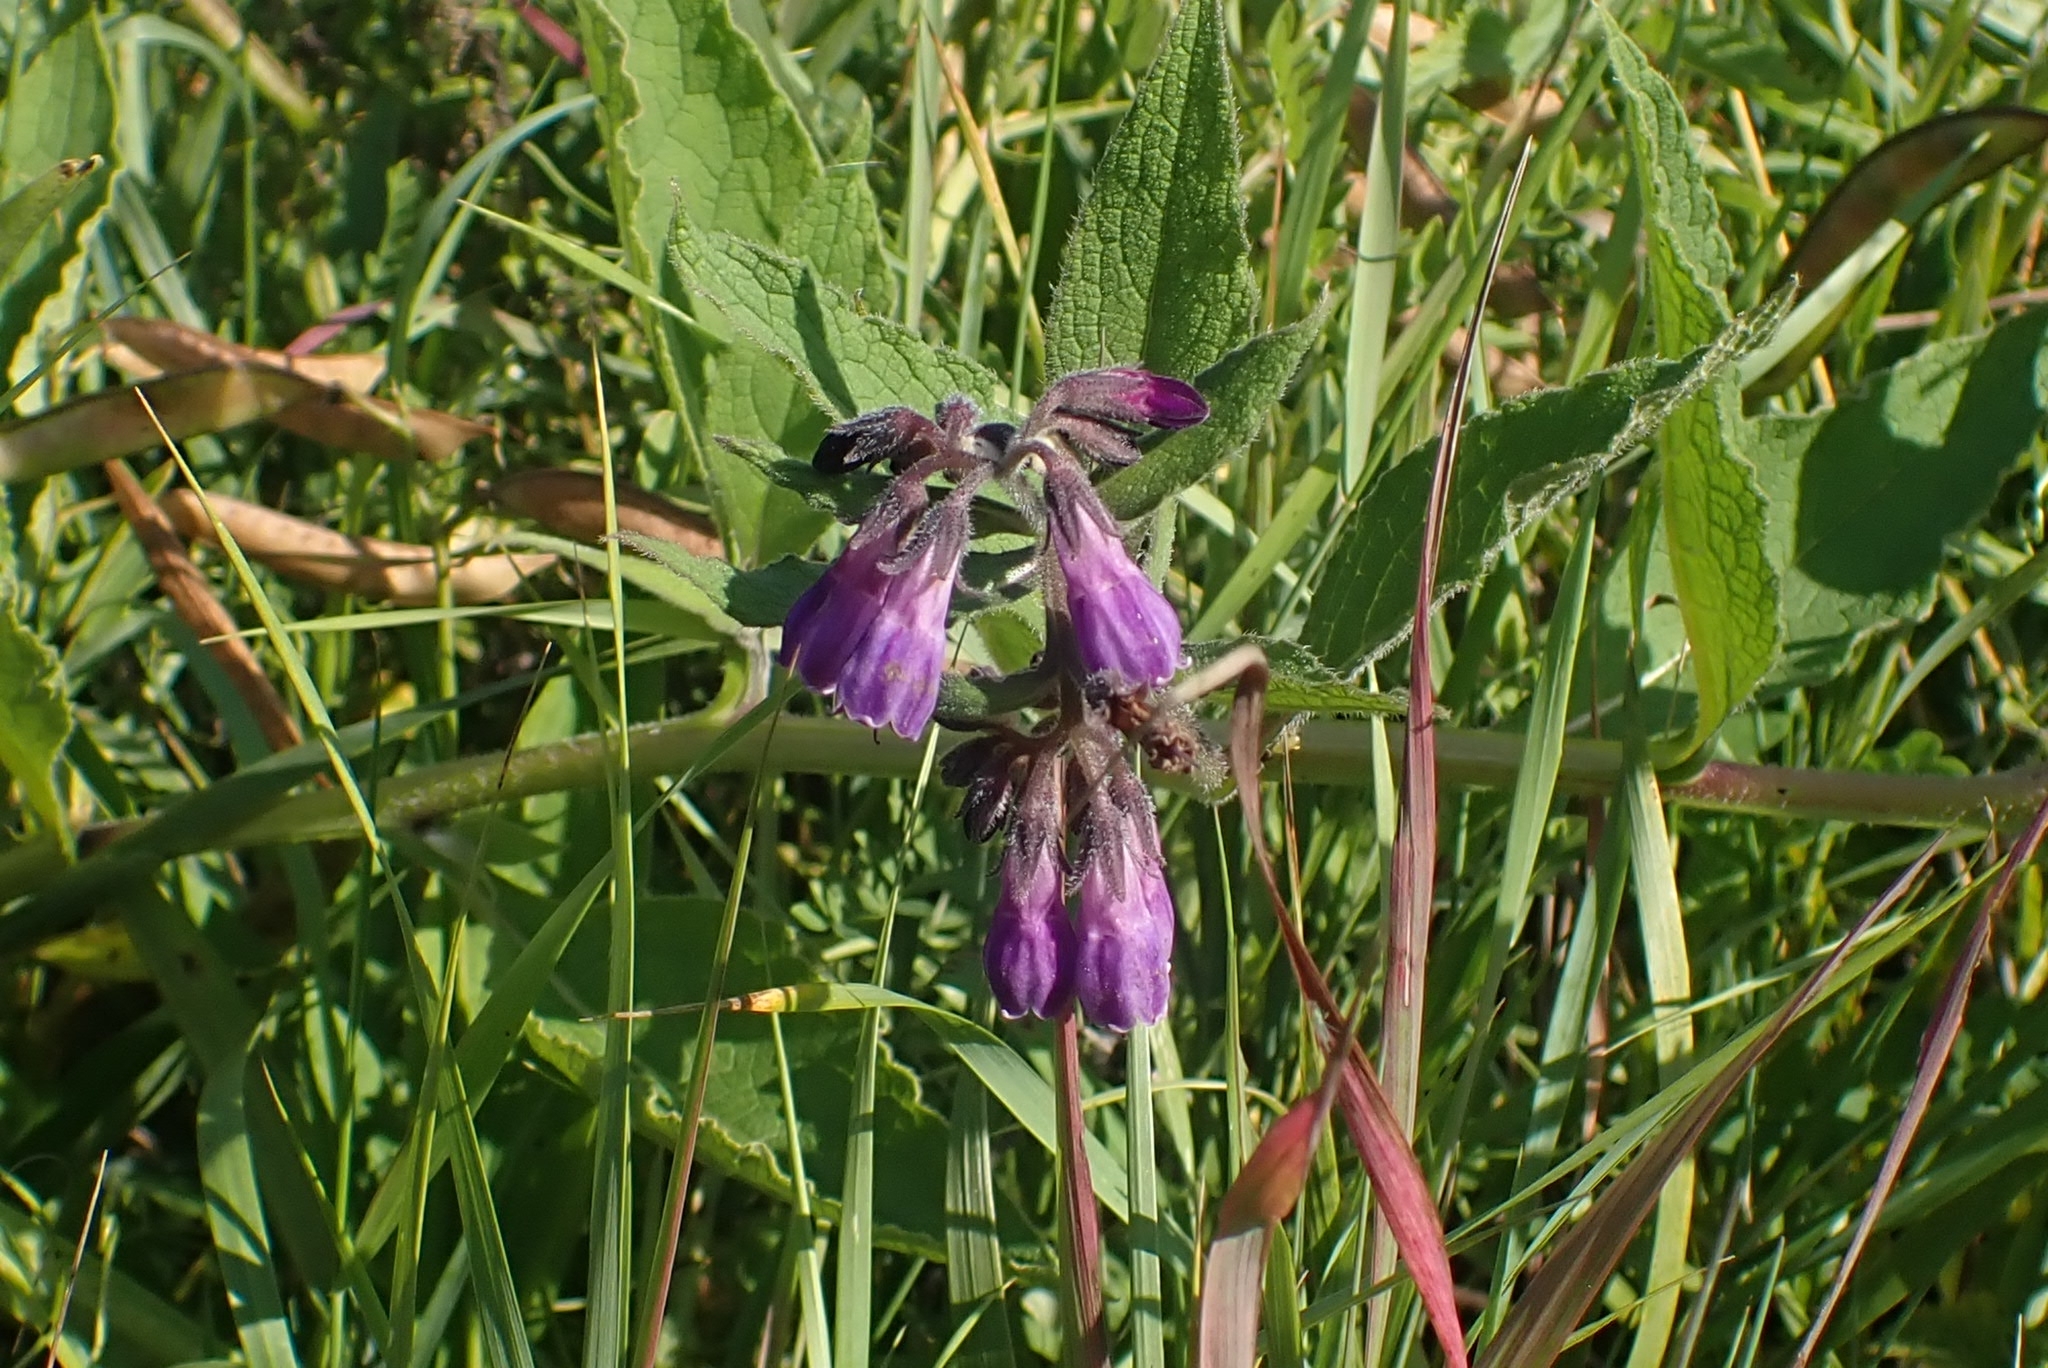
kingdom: Plantae
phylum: Tracheophyta
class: Magnoliopsida
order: Boraginales
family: Boraginaceae
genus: Symphytum
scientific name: Symphytum officinale
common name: Common comfrey
